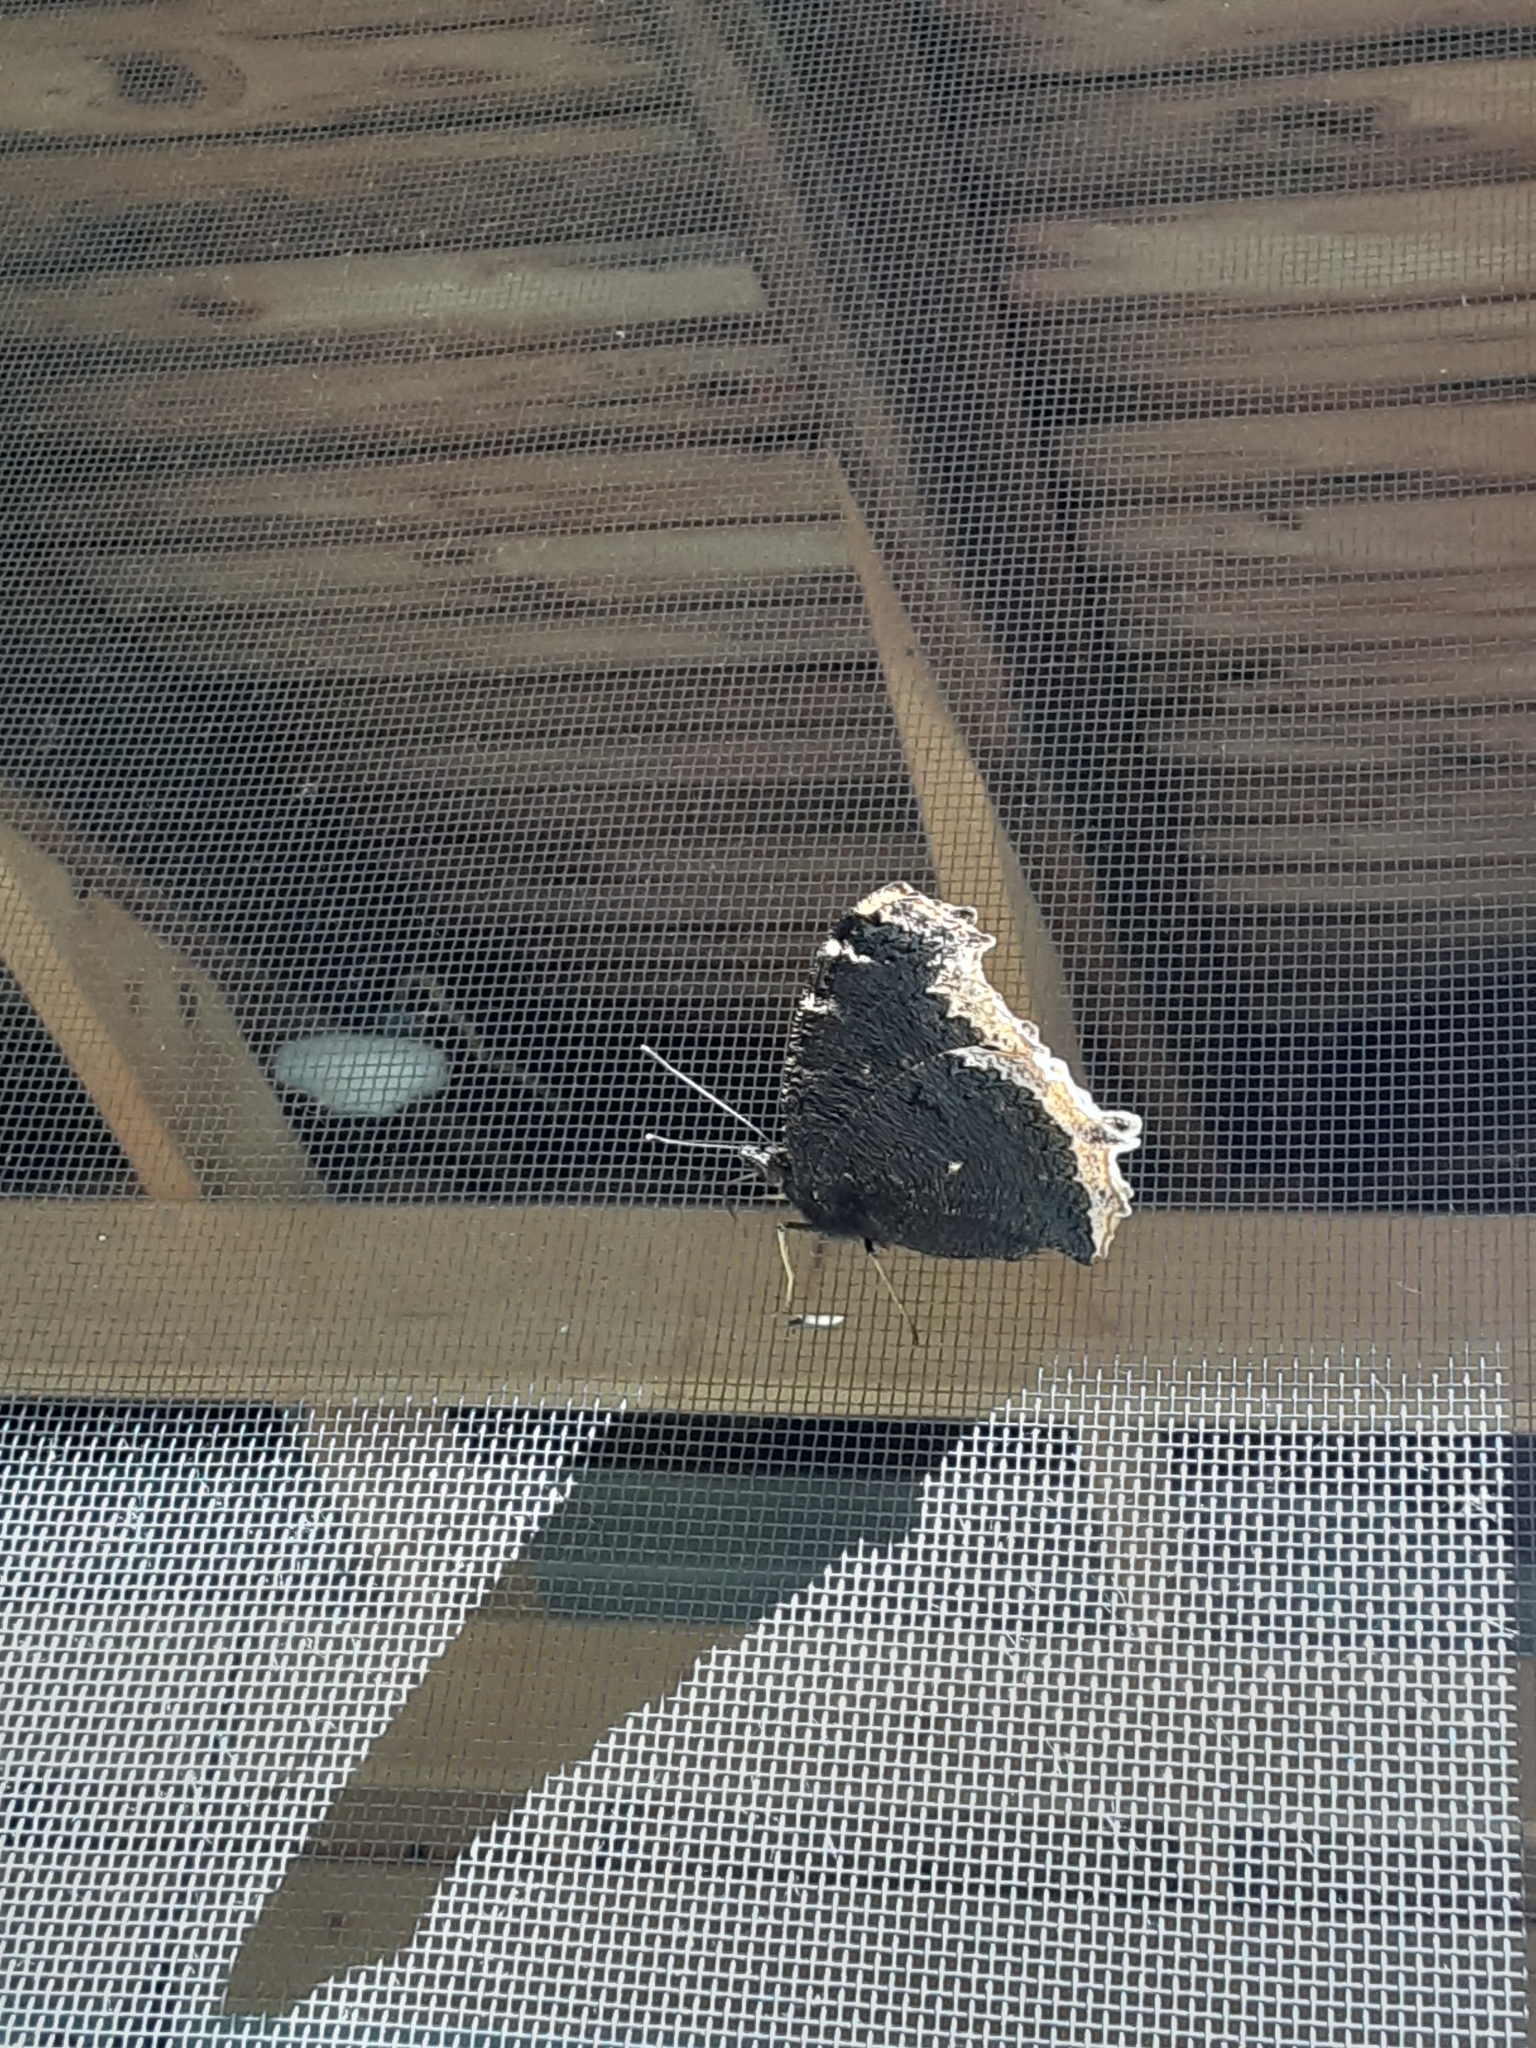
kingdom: Animalia
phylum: Arthropoda
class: Insecta
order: Lepidoptera
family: Nymphalidae
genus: Nymphalis
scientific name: Nymphalis antiopa
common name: Camberwell beauty
